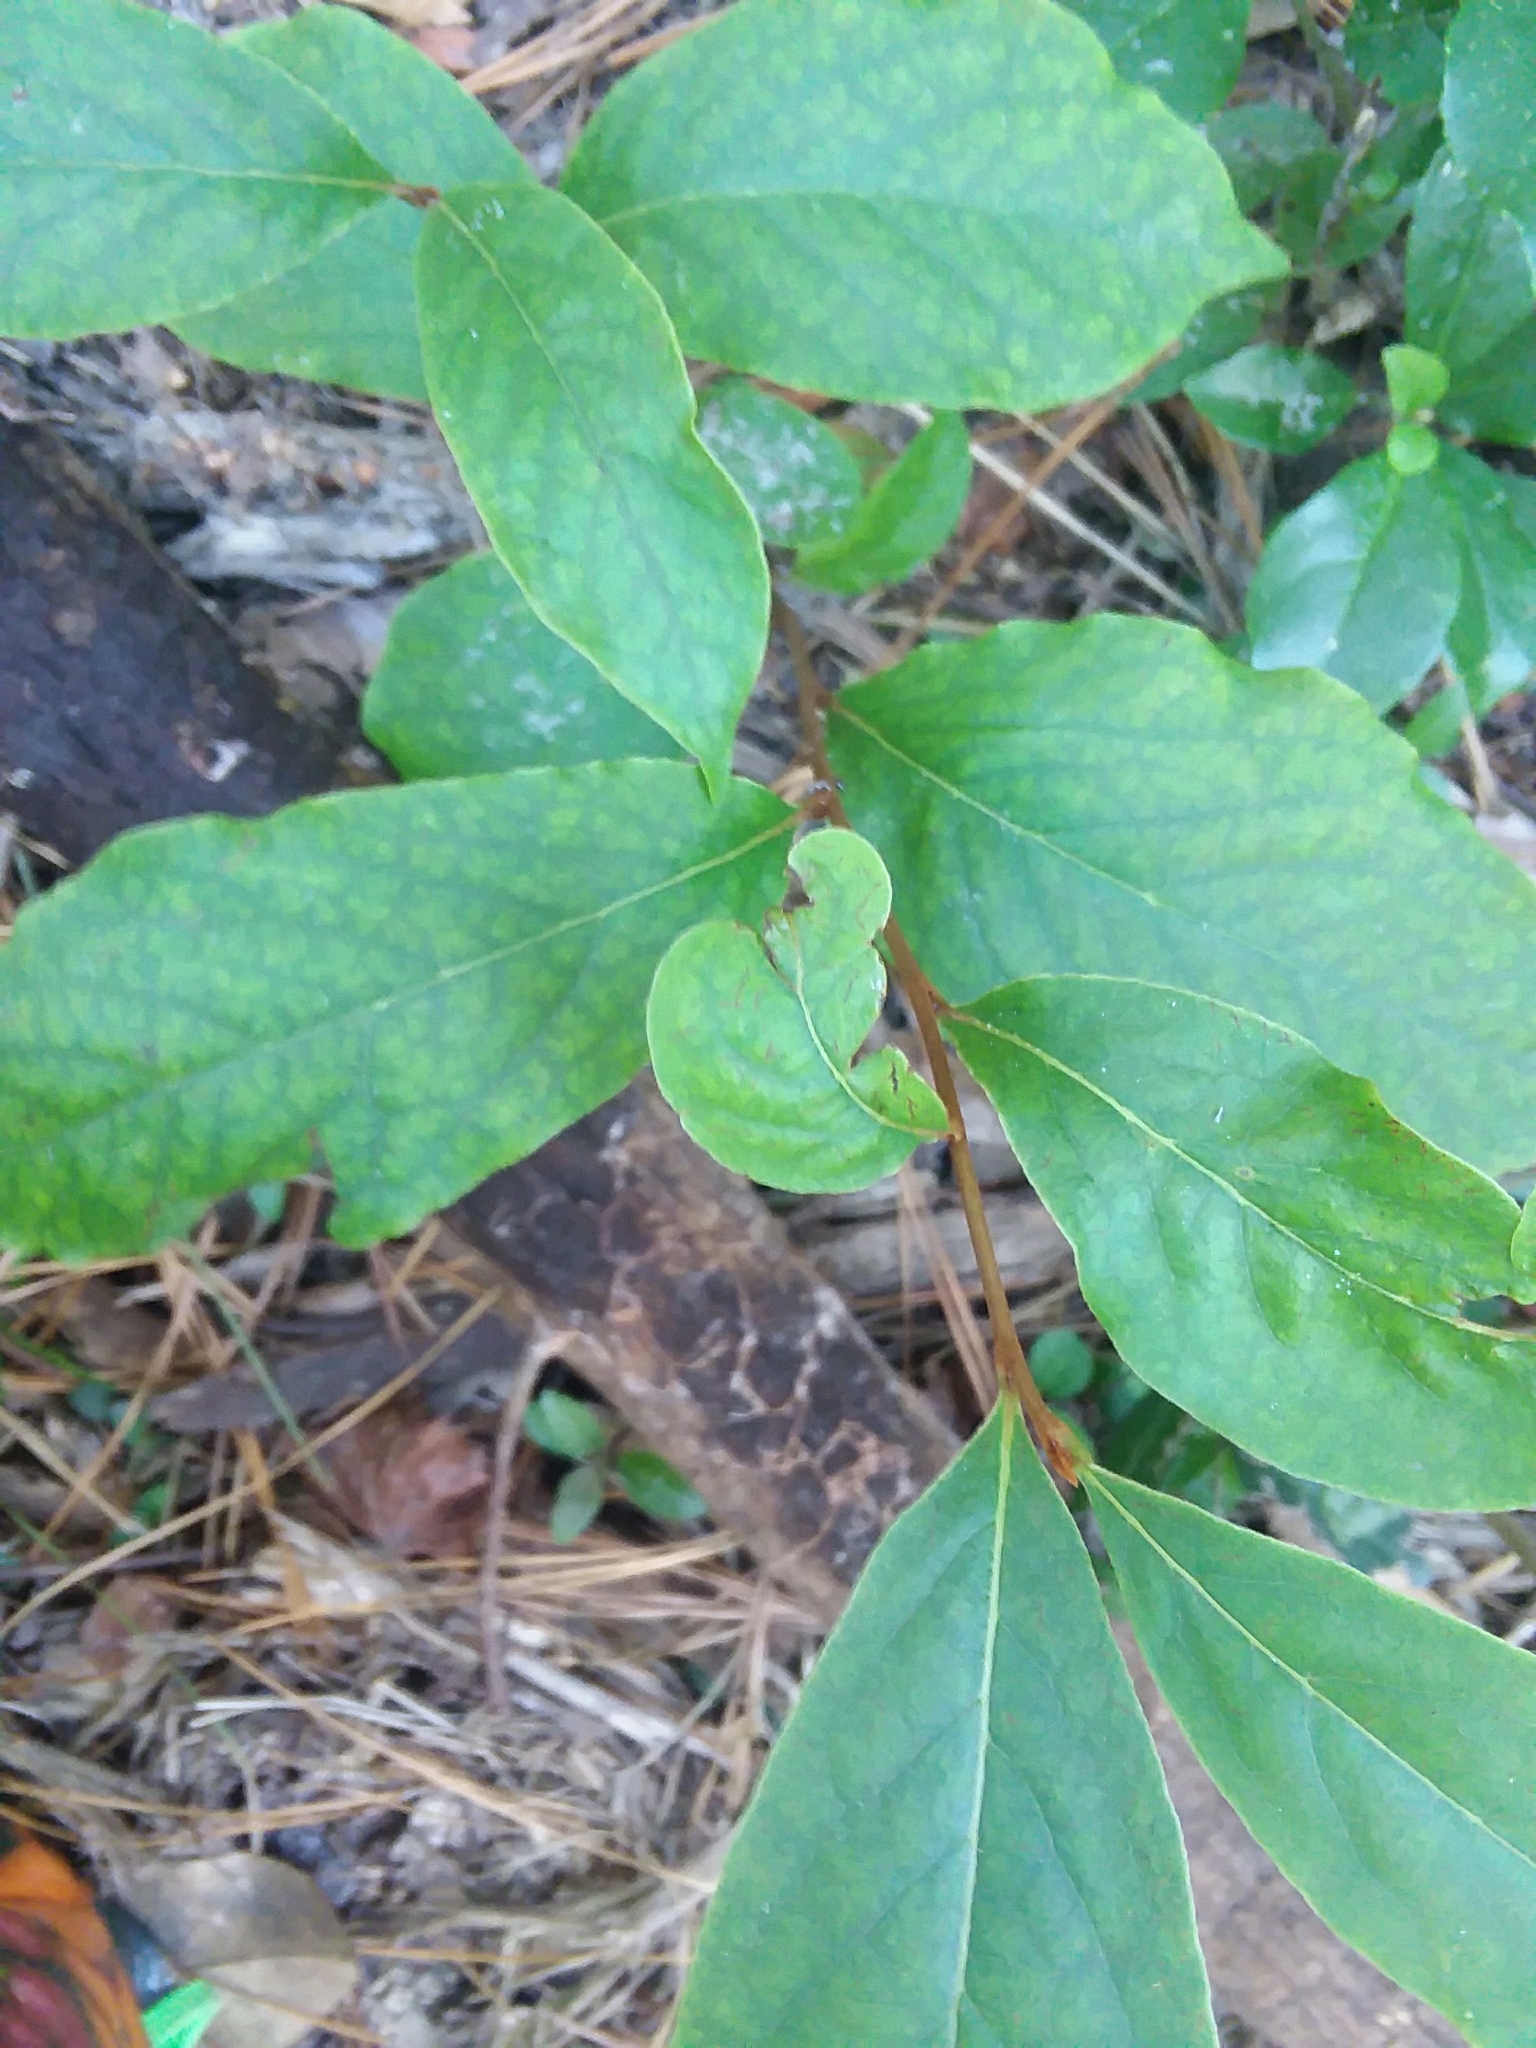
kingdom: Plantae
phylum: Tracheophyta
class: Magnoliopsida
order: Magnoliales
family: Annonaceae
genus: Asimina
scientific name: Asimina parviflora
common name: Dwarf pawpaw
